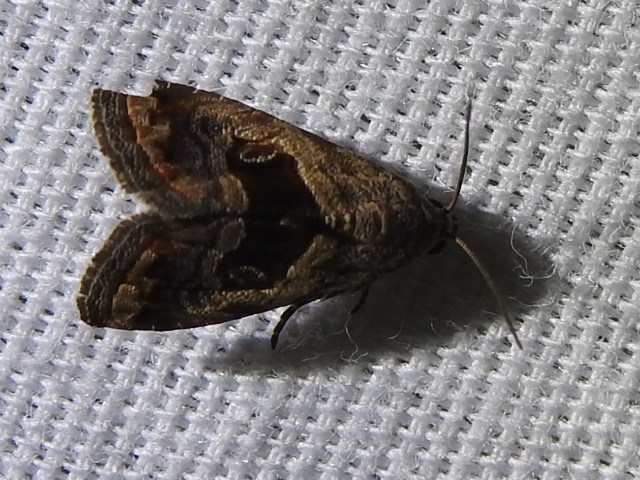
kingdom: Animalia
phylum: Arthropoda
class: Insecta
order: Lepidoptera
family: Noctuidae
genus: Tripudia
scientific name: Tripudia quadrifera
